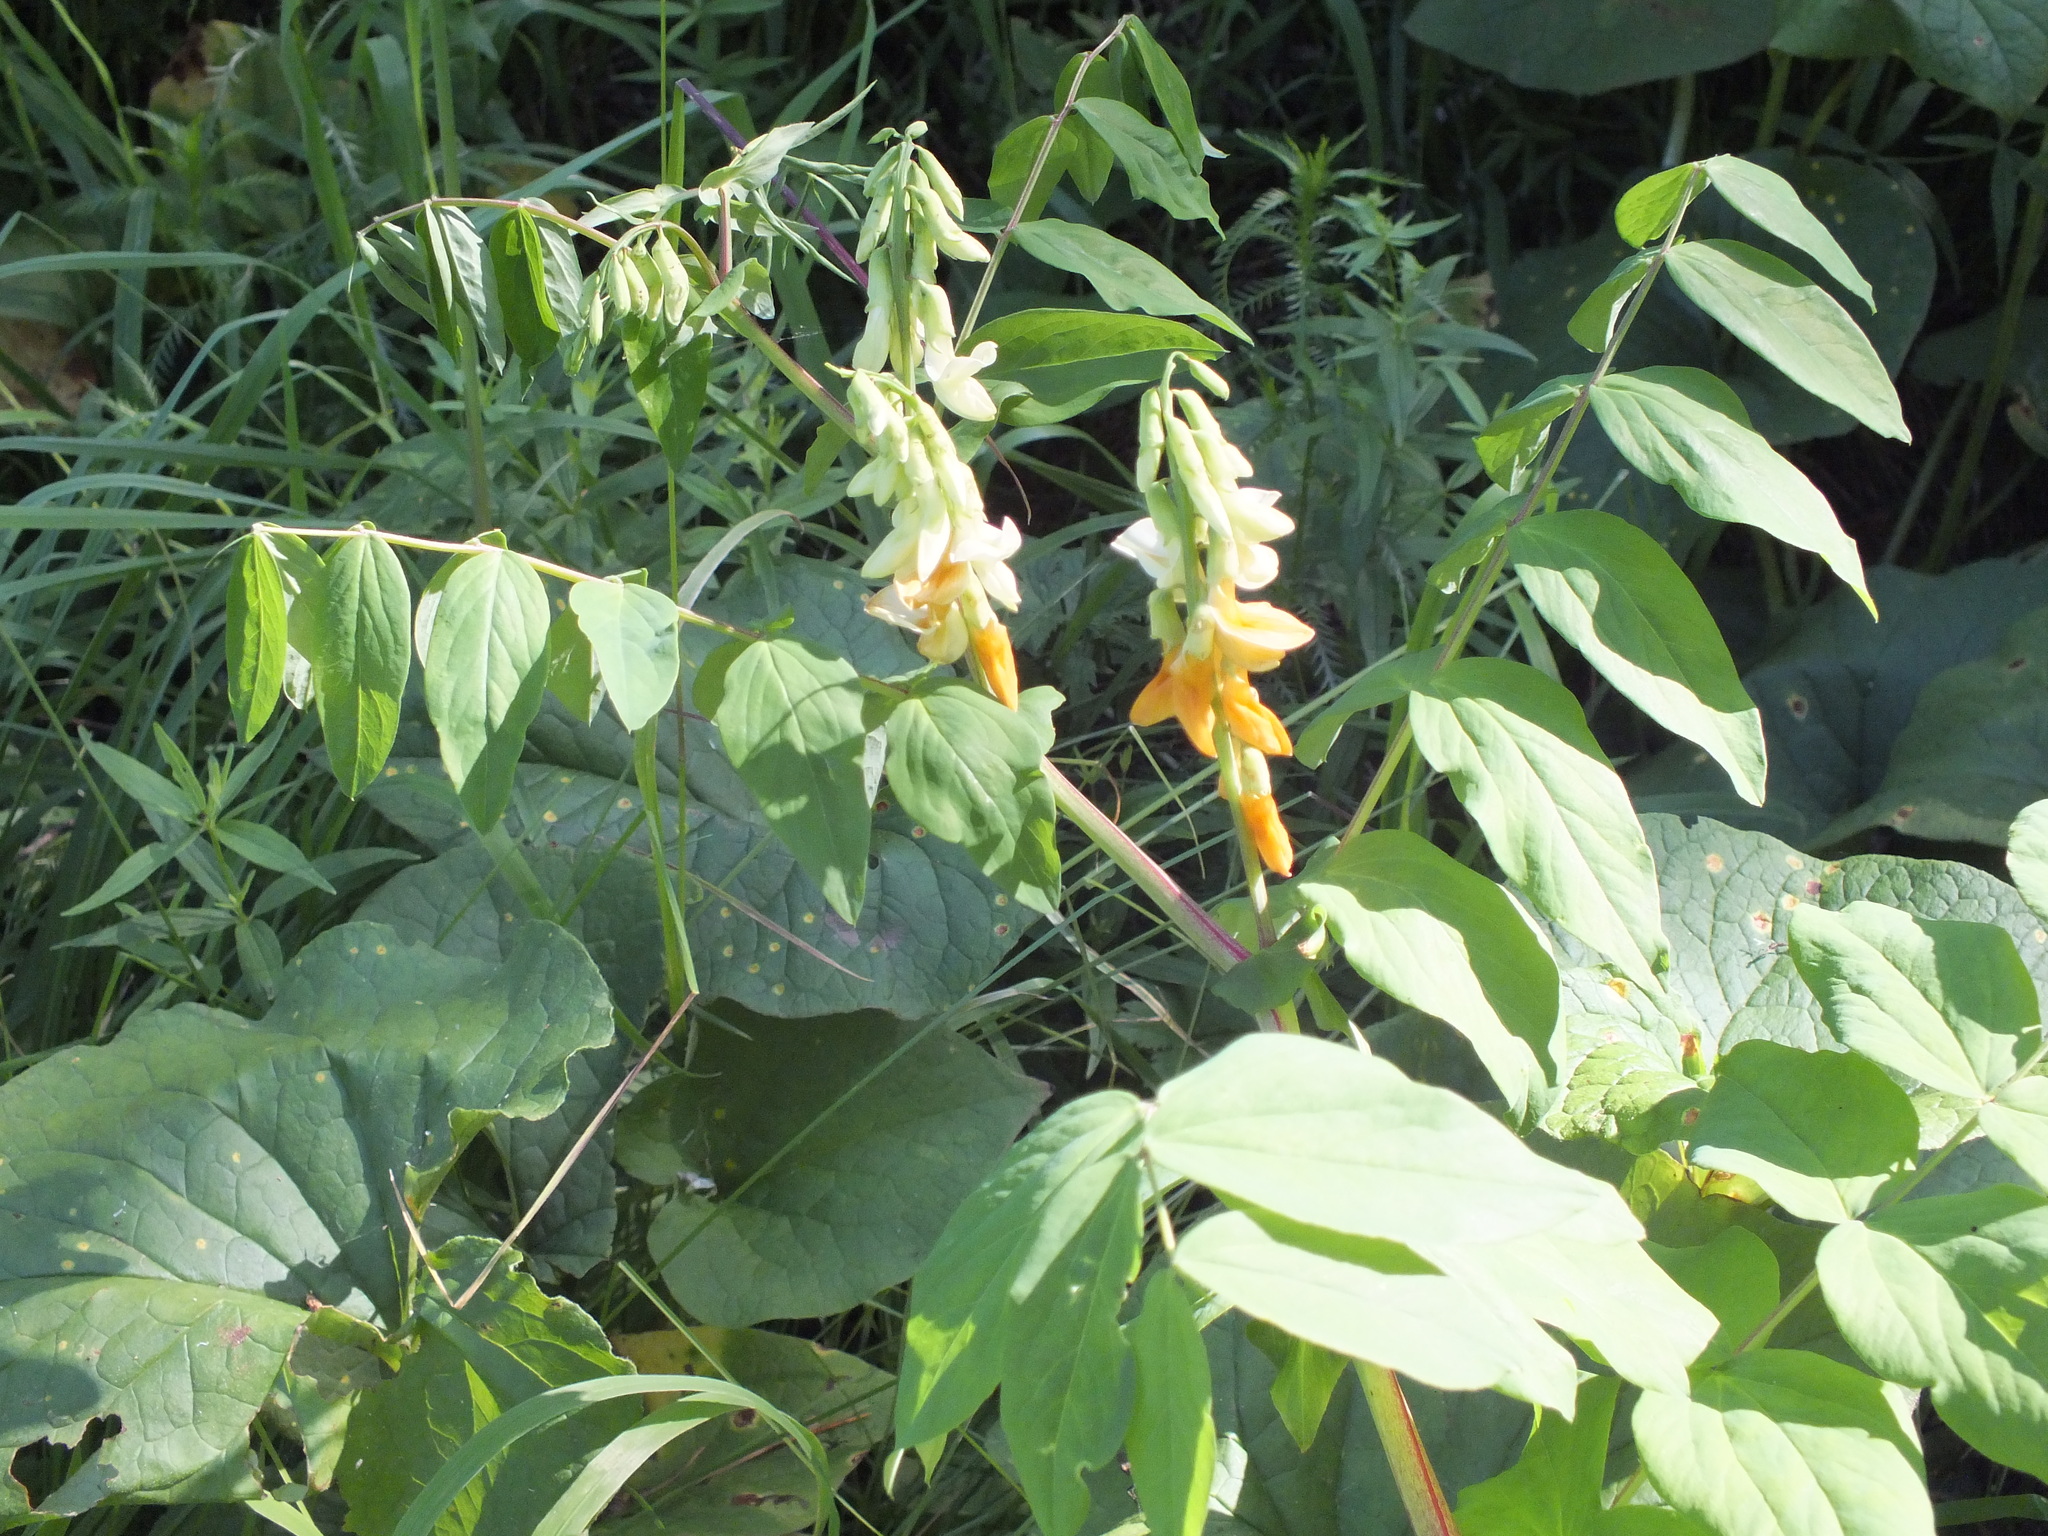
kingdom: Plantae
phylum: Tracheophyta
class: Magnoliopsida
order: Fabales
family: Fabaceae
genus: Lathyrus
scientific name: Lathyrus gmelinii
